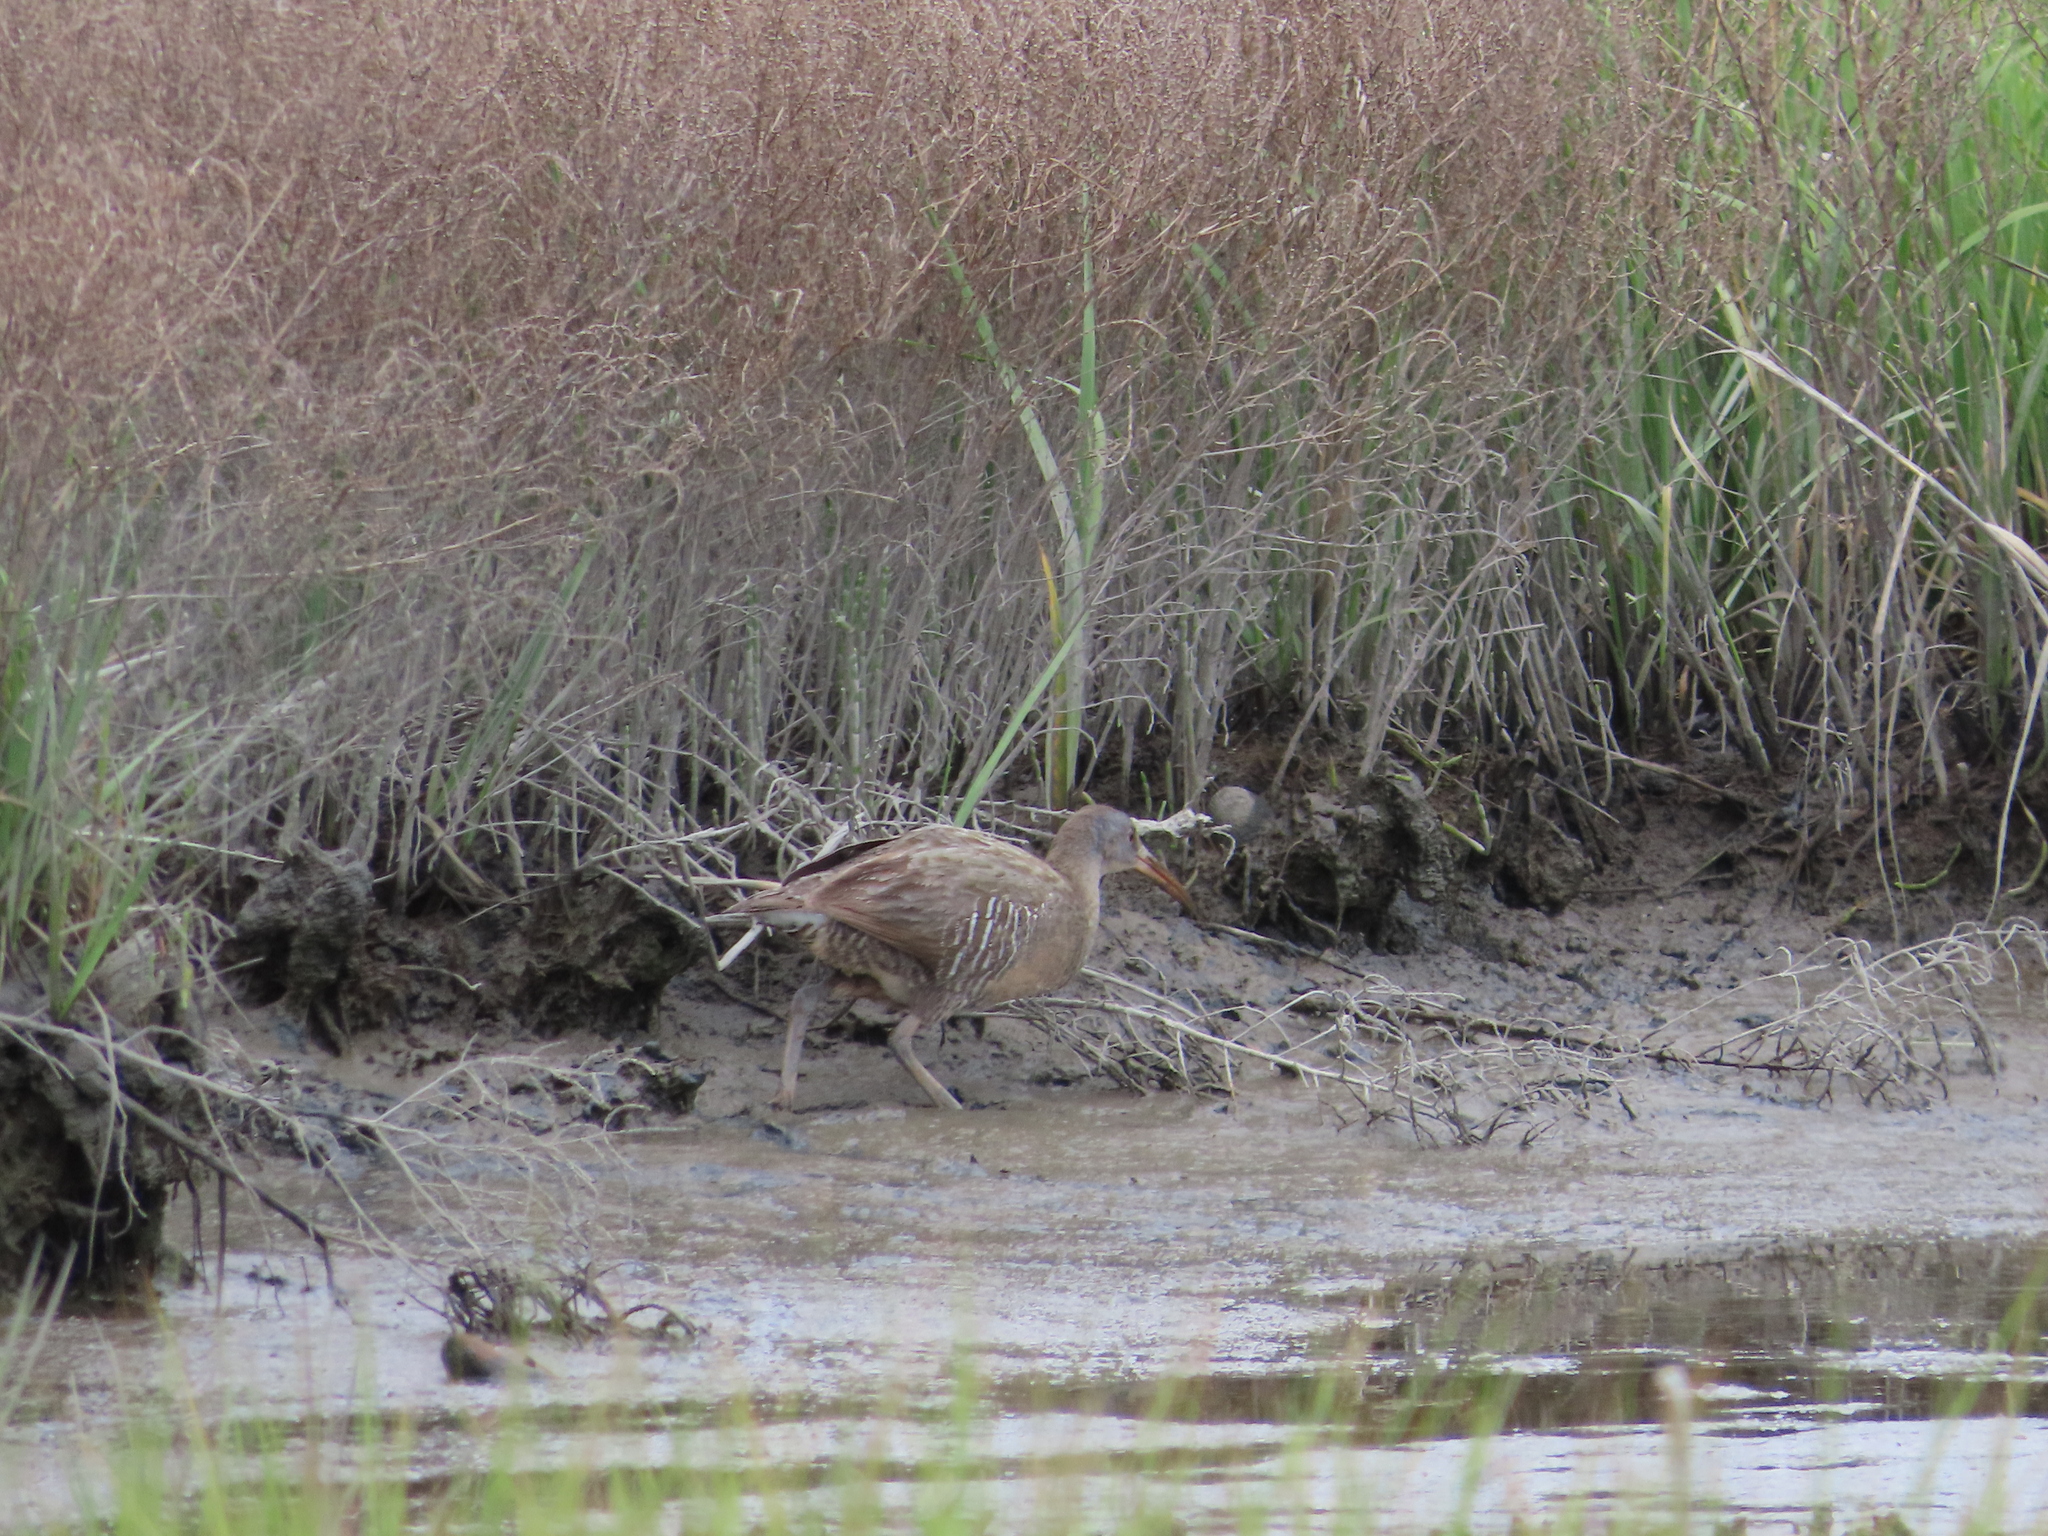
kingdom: Animalia
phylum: Chordata
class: Aves
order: Gruiformes
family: Rallidae
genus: Rallus
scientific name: Rallus crepitans
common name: Clapper rail
